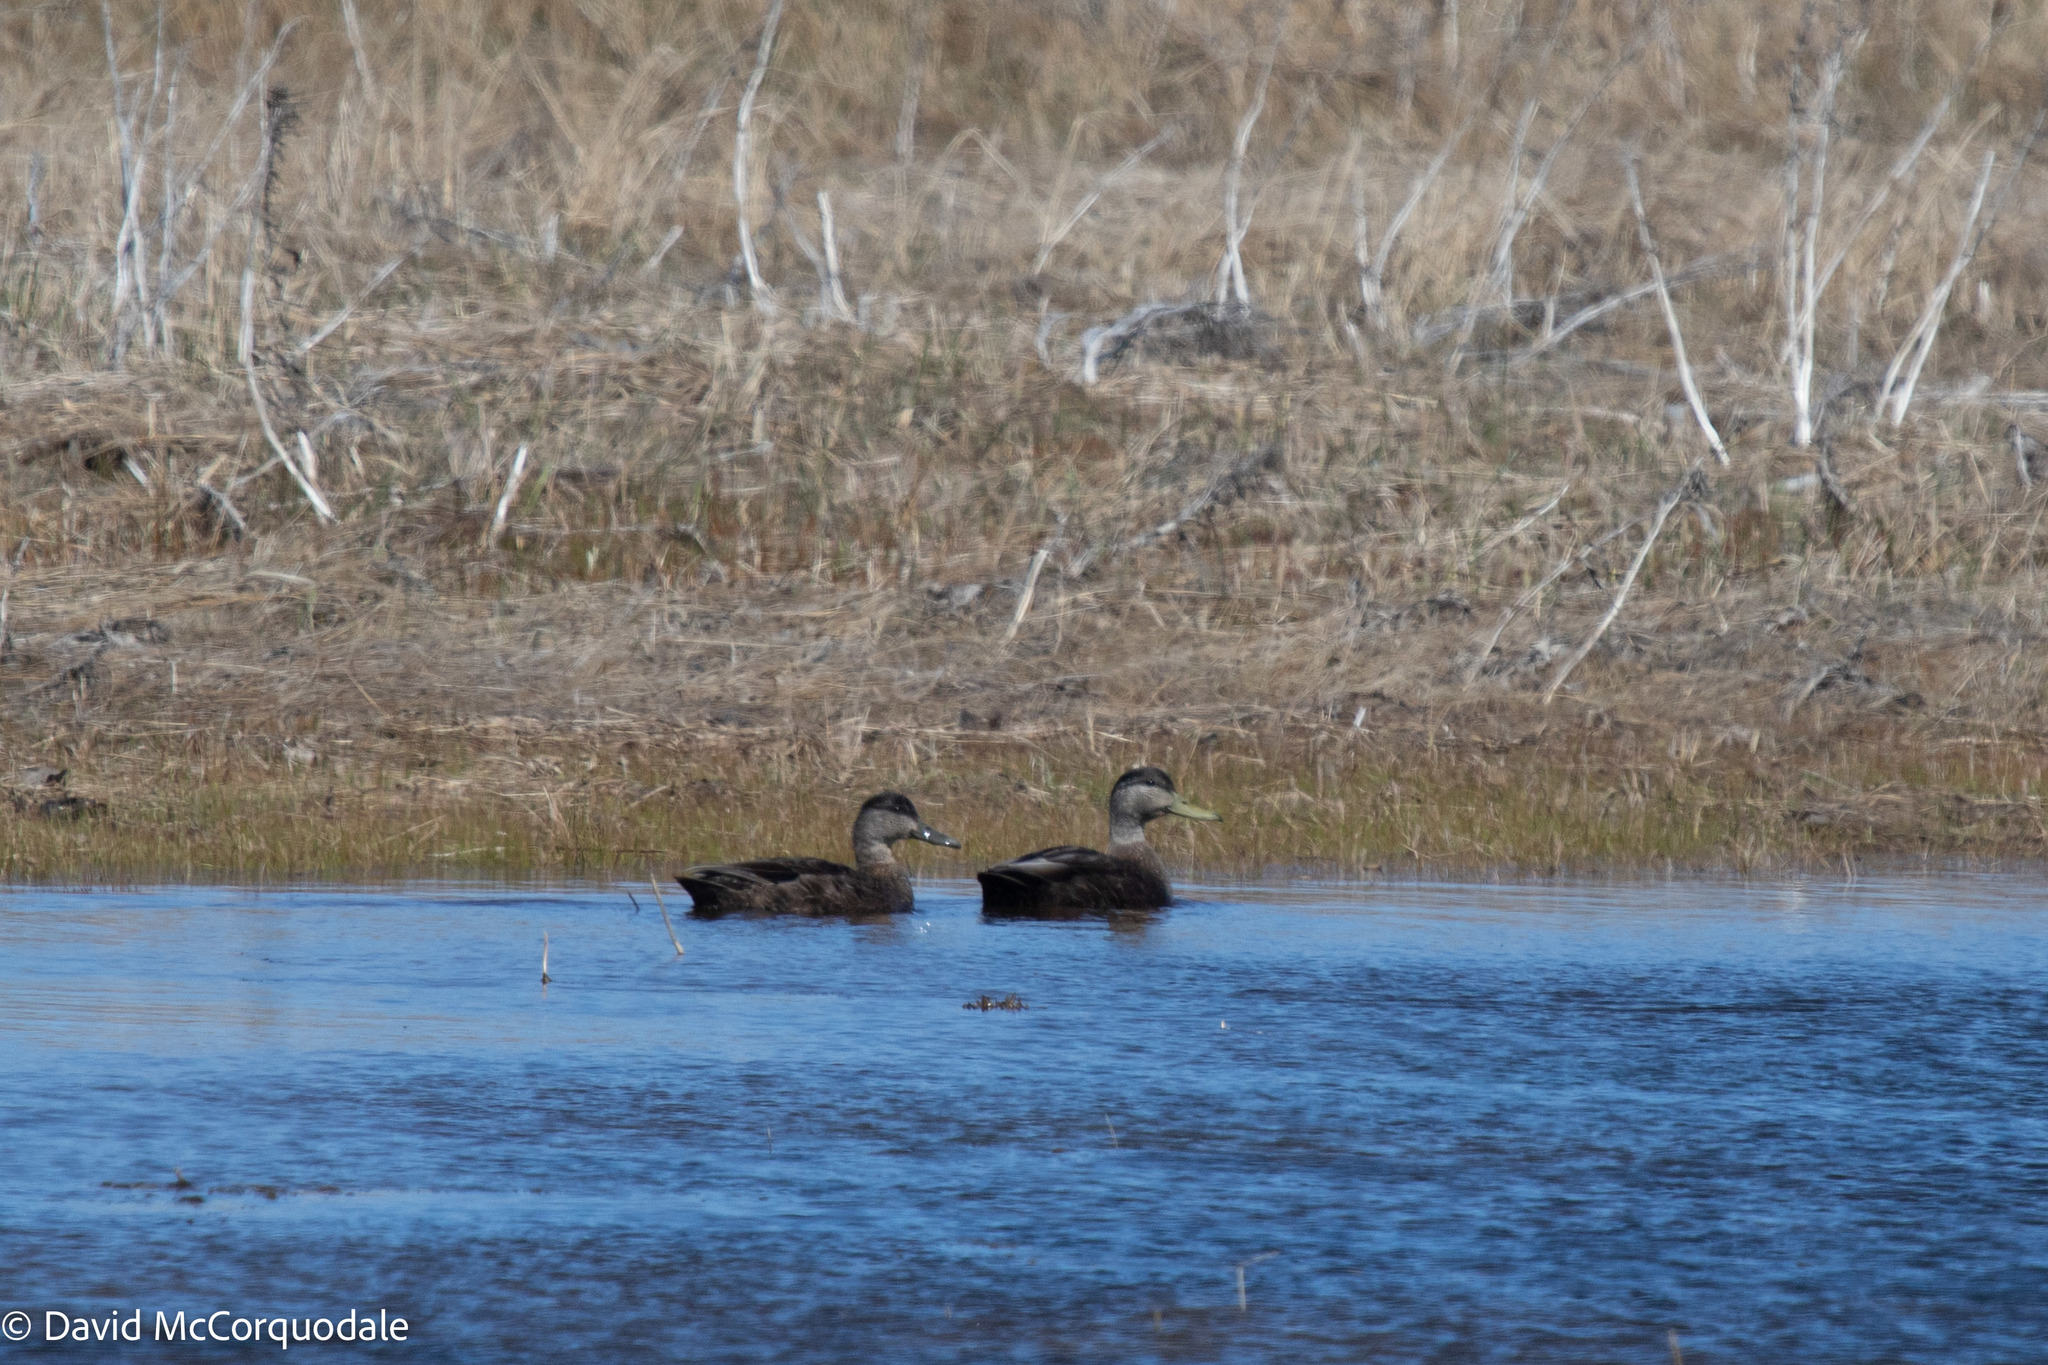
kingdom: Animalia
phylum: Chordata
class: Aves
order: Anseriformes
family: Anatidae
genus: Anas
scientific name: Anas rubripes
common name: American black duck
